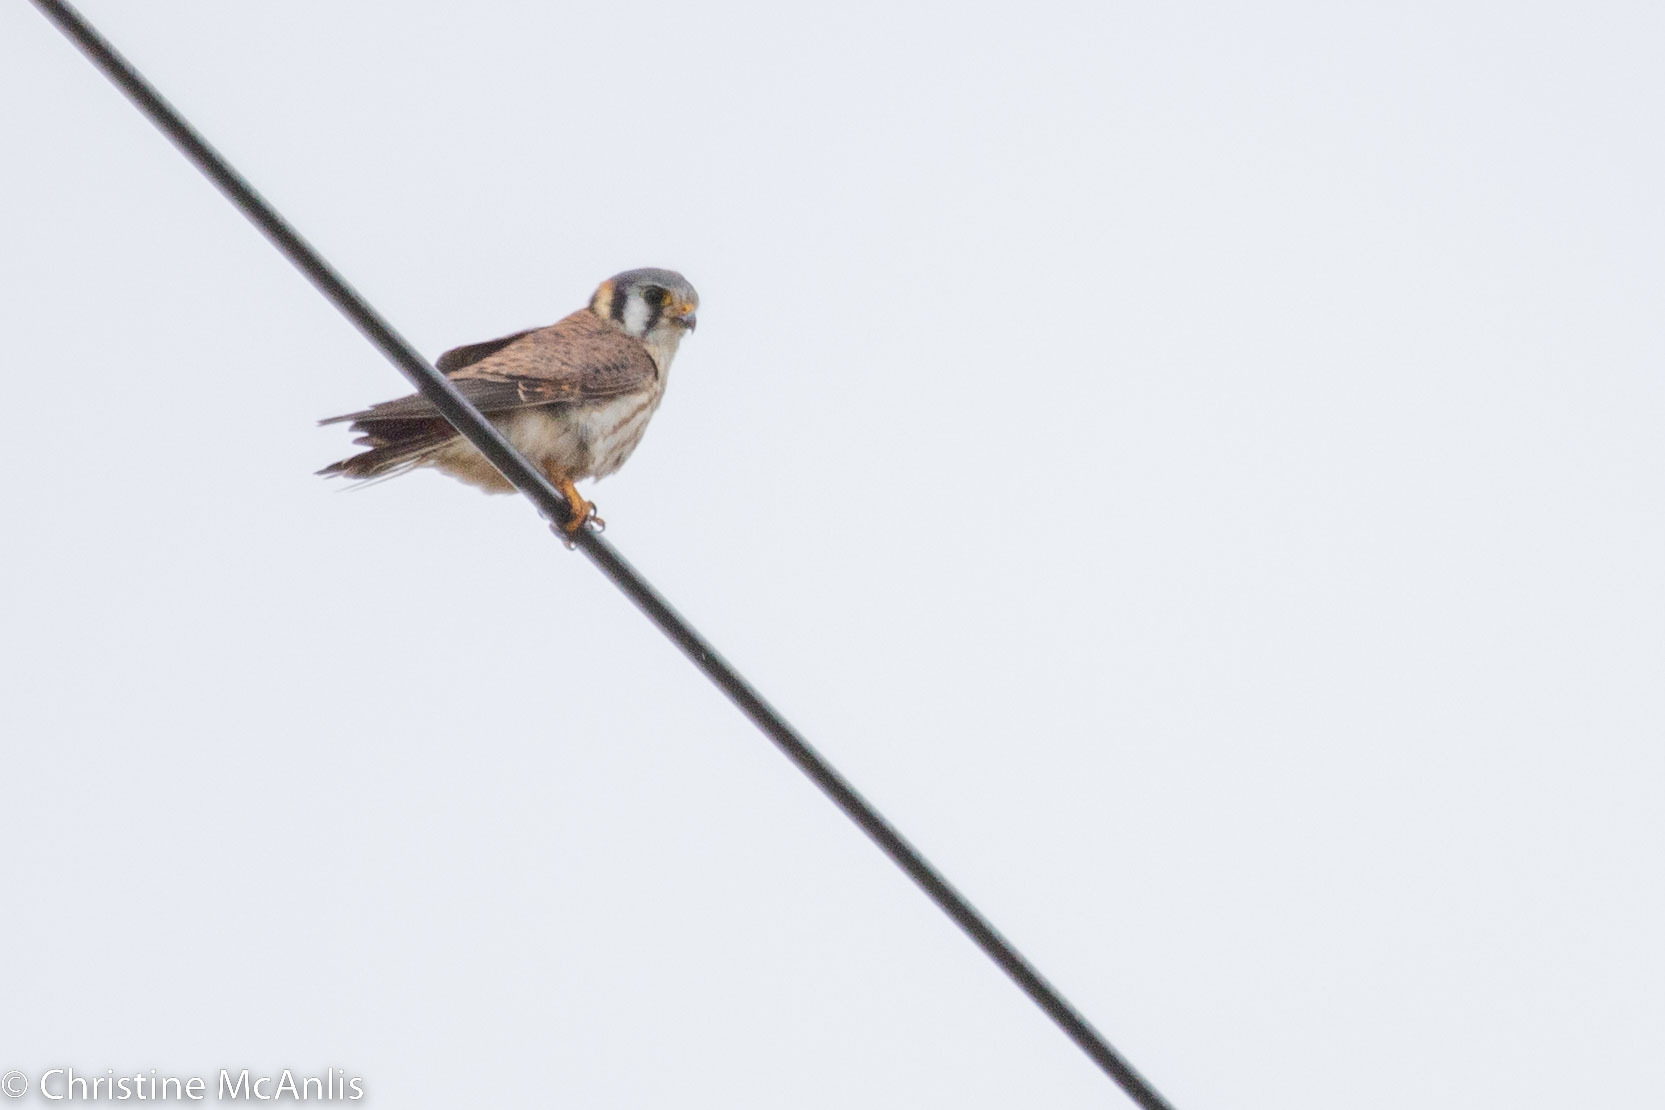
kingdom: Animalia
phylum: Chordata
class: Aves
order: Falconiformes
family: Falconidae
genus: Falco
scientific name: Falco sparverius
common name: American kestrel
